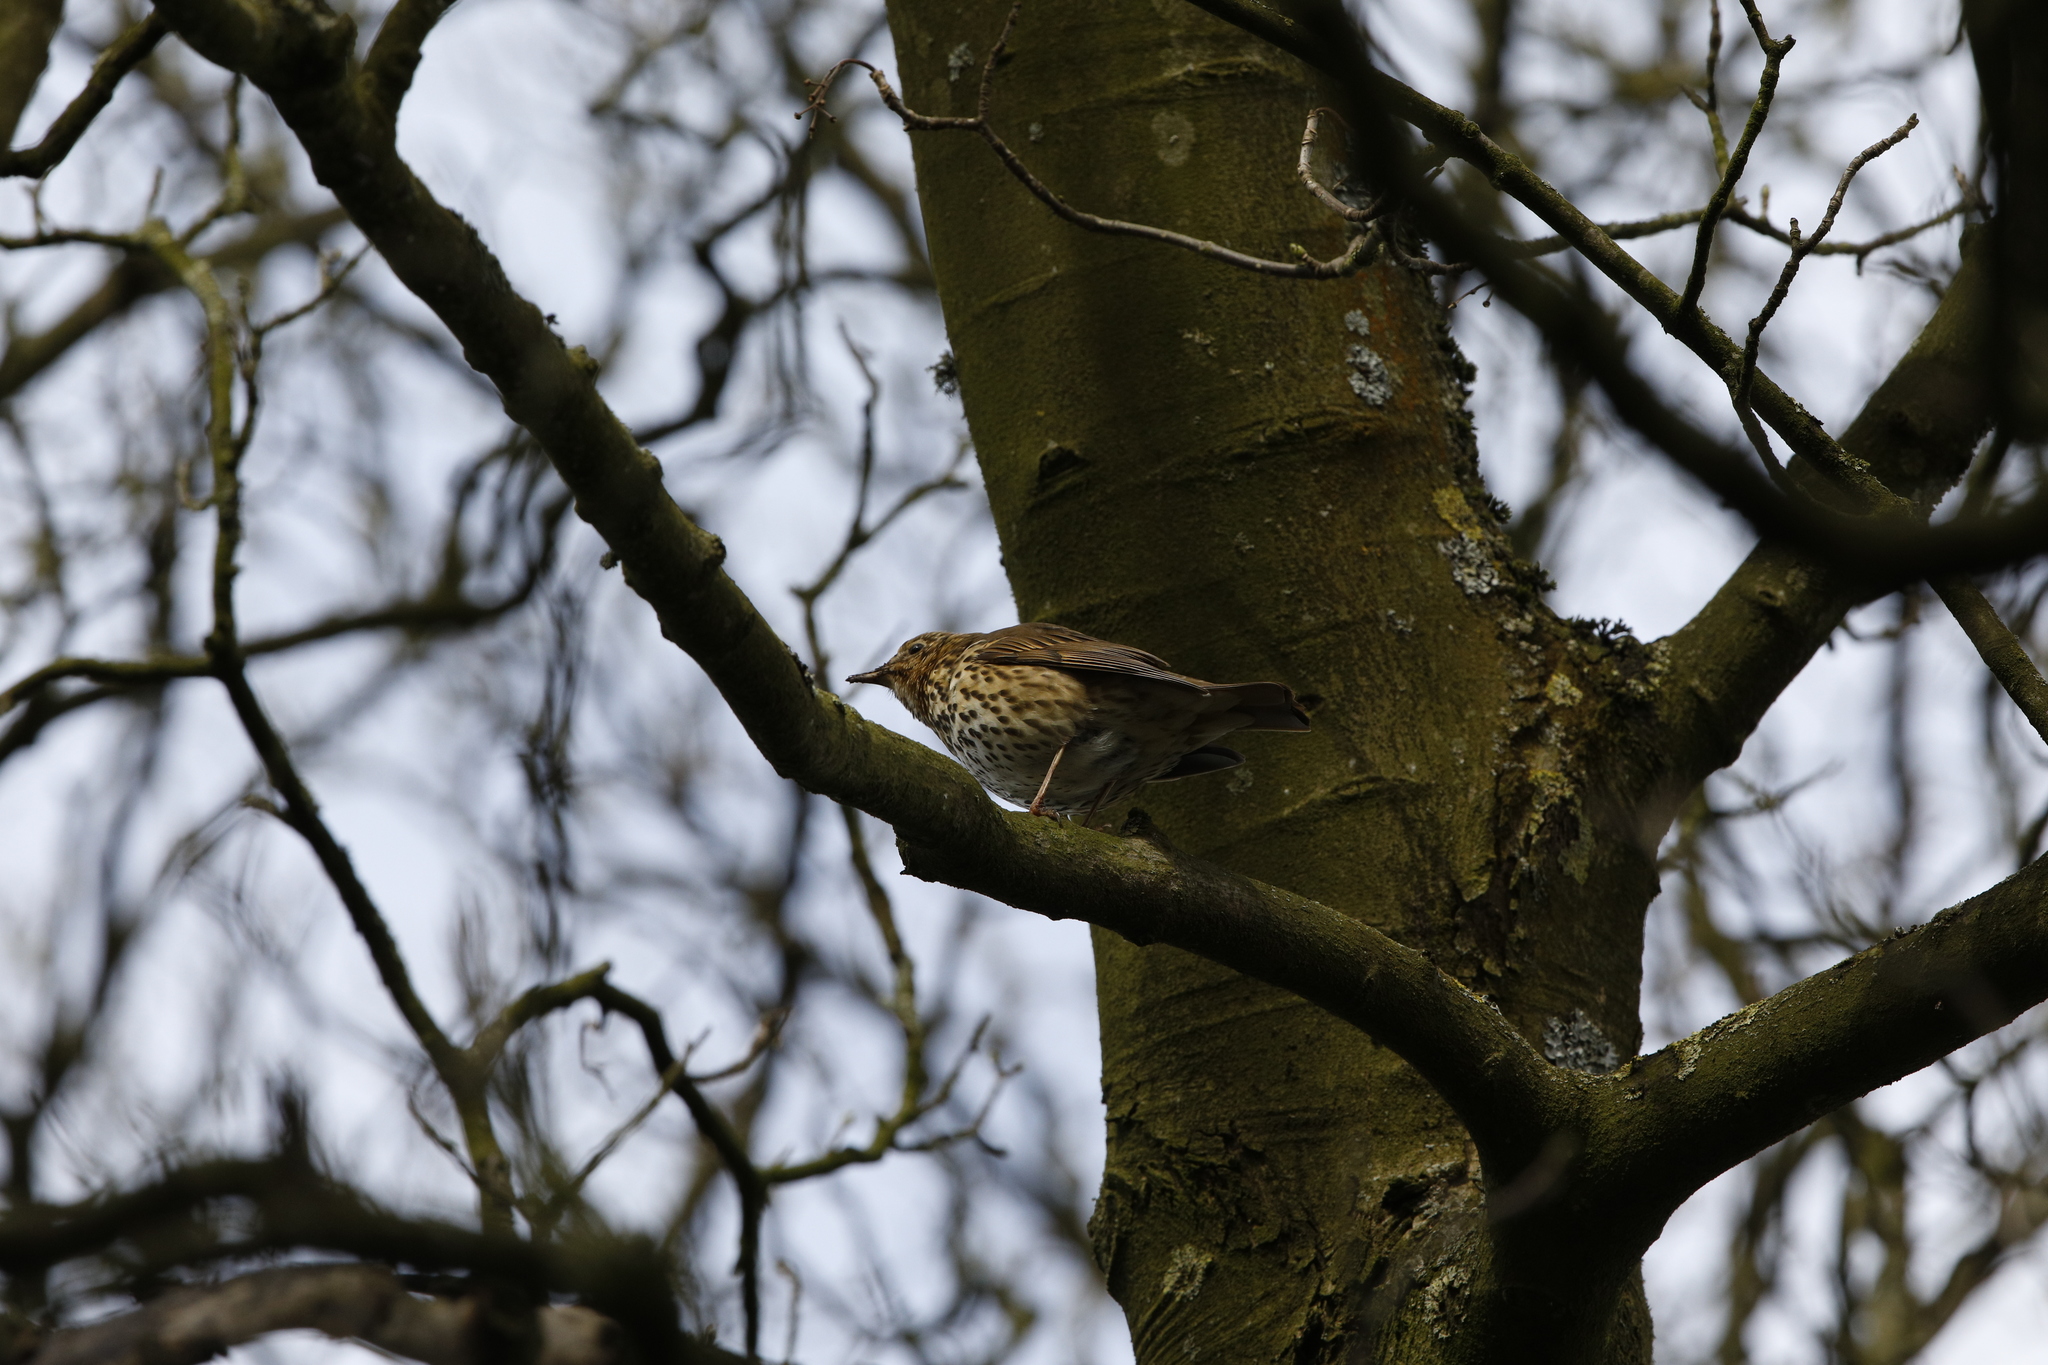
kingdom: Animalia
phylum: Chordata
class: Aves
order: Passeriformes
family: Turdidae
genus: Turdus
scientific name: Turdus philomelos
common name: Song thrush
